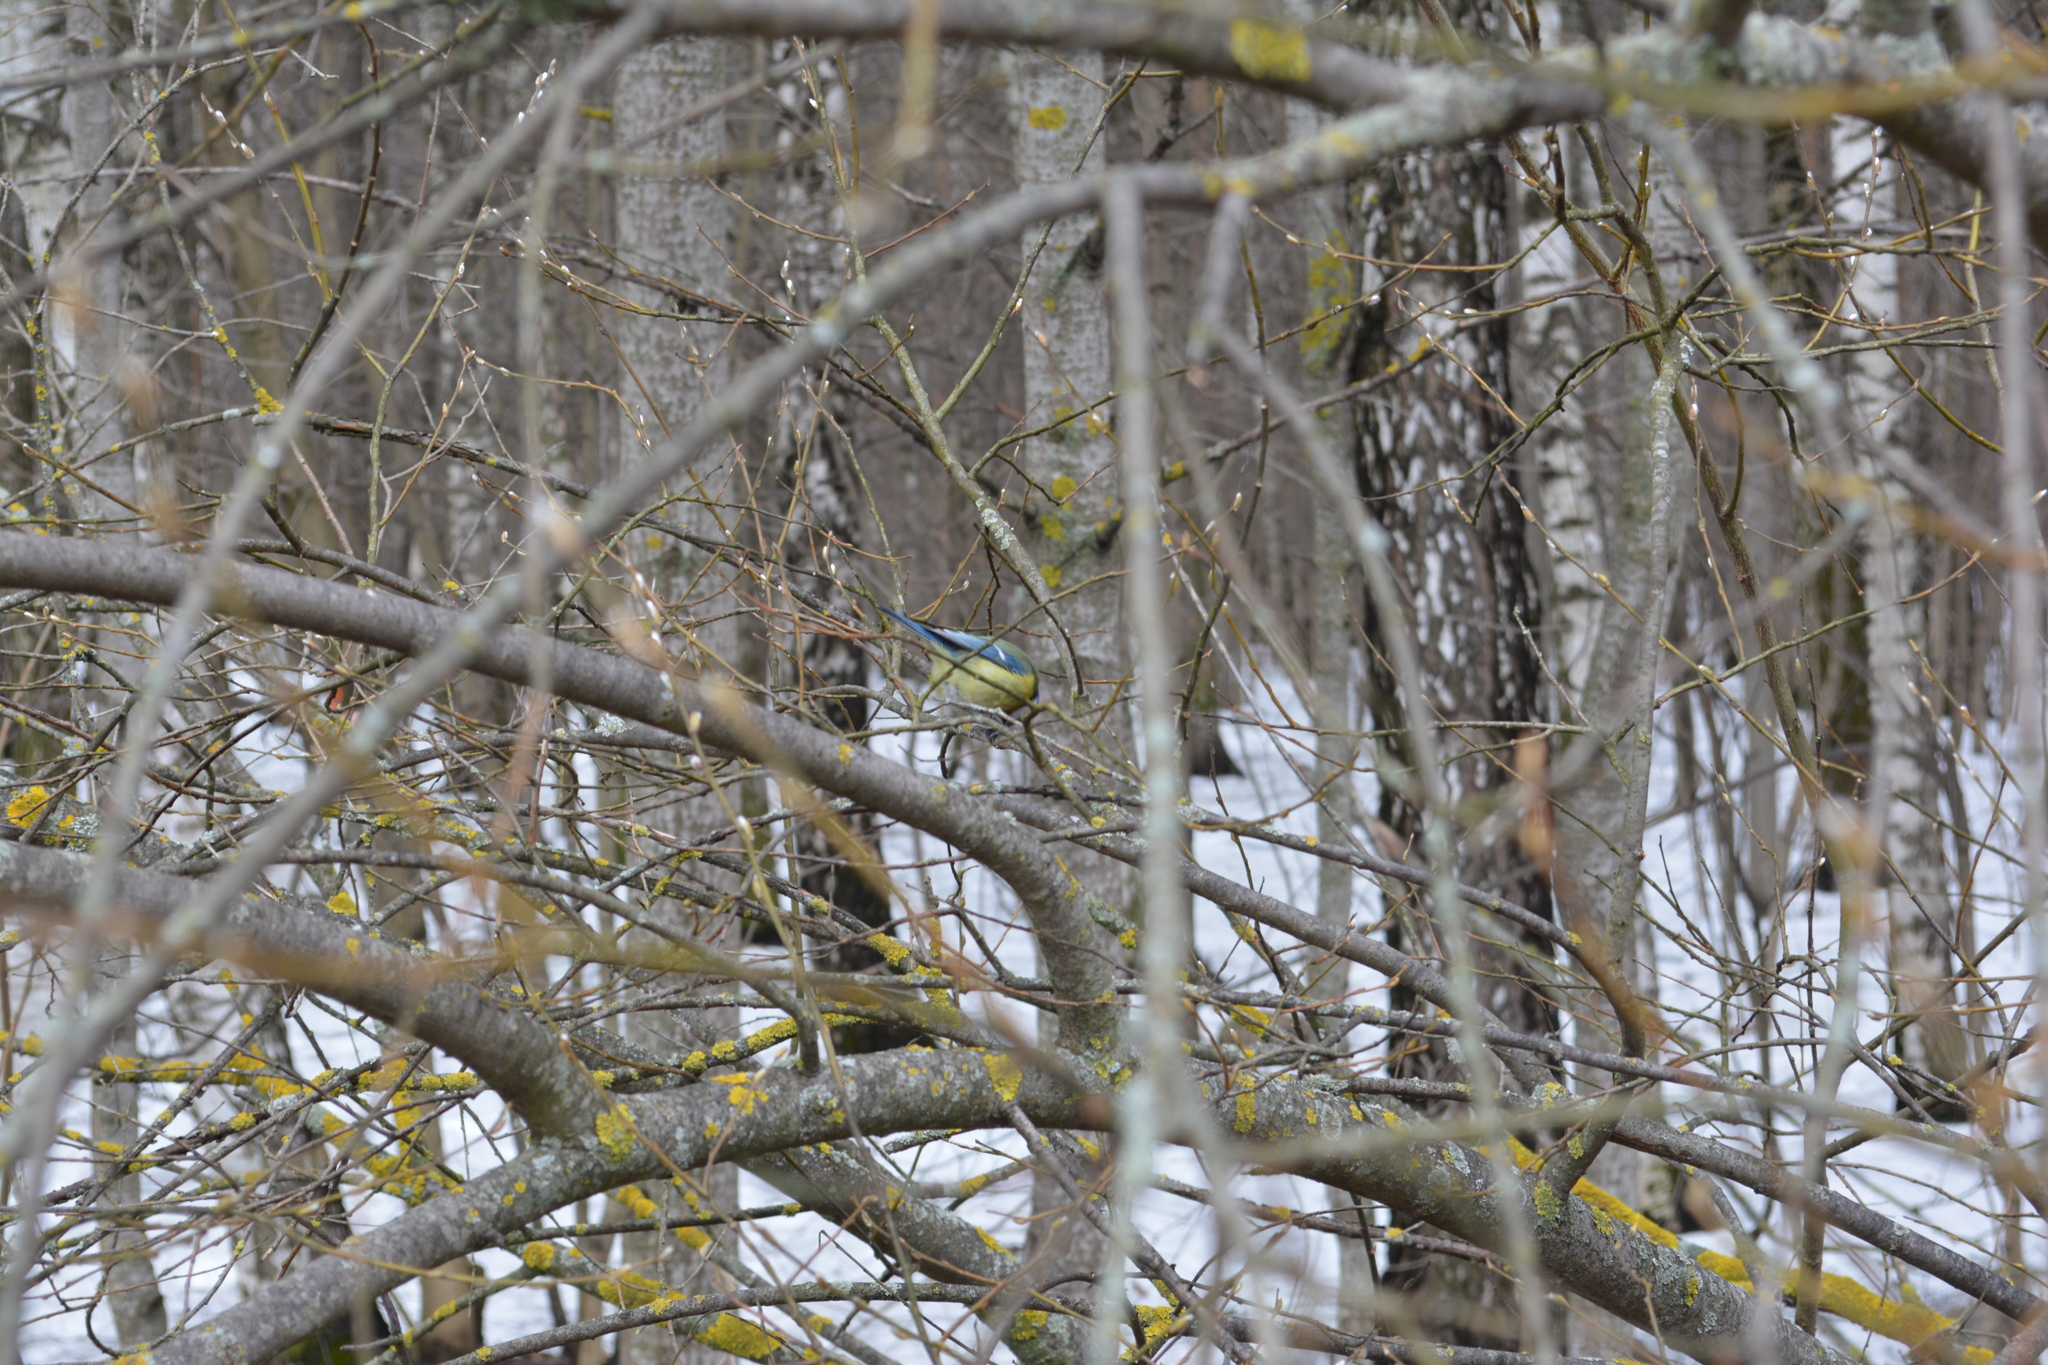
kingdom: Animalia
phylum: Chordata
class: Aves
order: Passeriformes
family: Paridae
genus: Cyanistes
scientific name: Cyanistes caeruleus
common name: Eurasian blue tit
